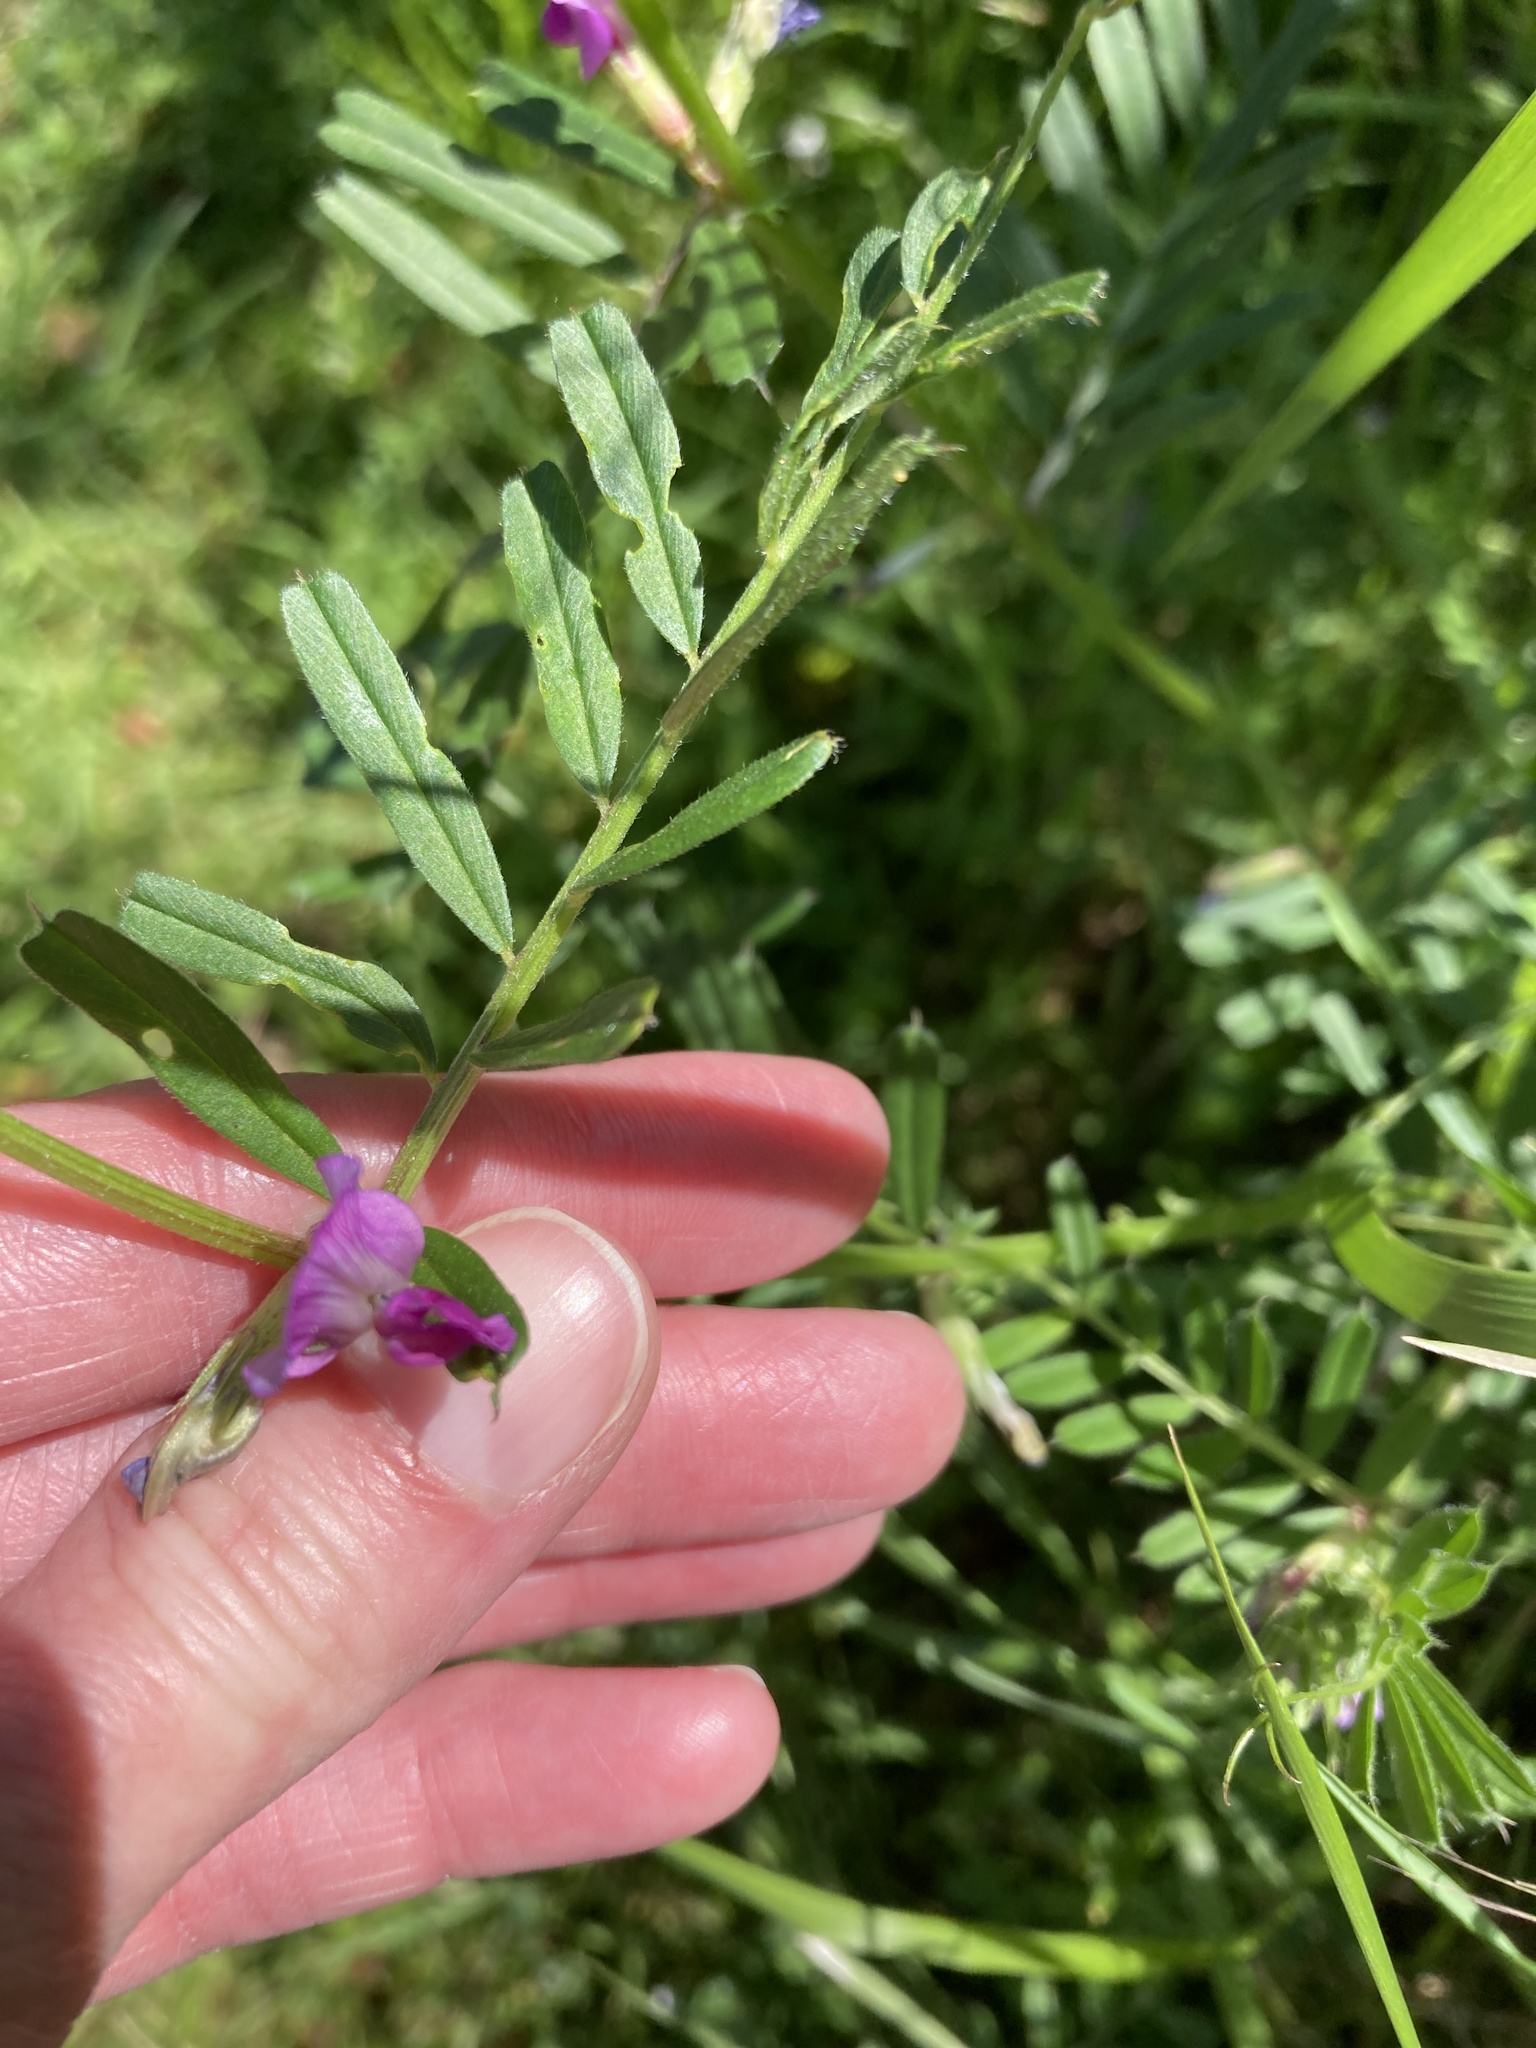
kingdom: Plantae
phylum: Tracheophyta
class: Magnoliopsida
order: Fabales
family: Fabaceae
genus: Vicia
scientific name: Vicia sativa
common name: Garden vetch
